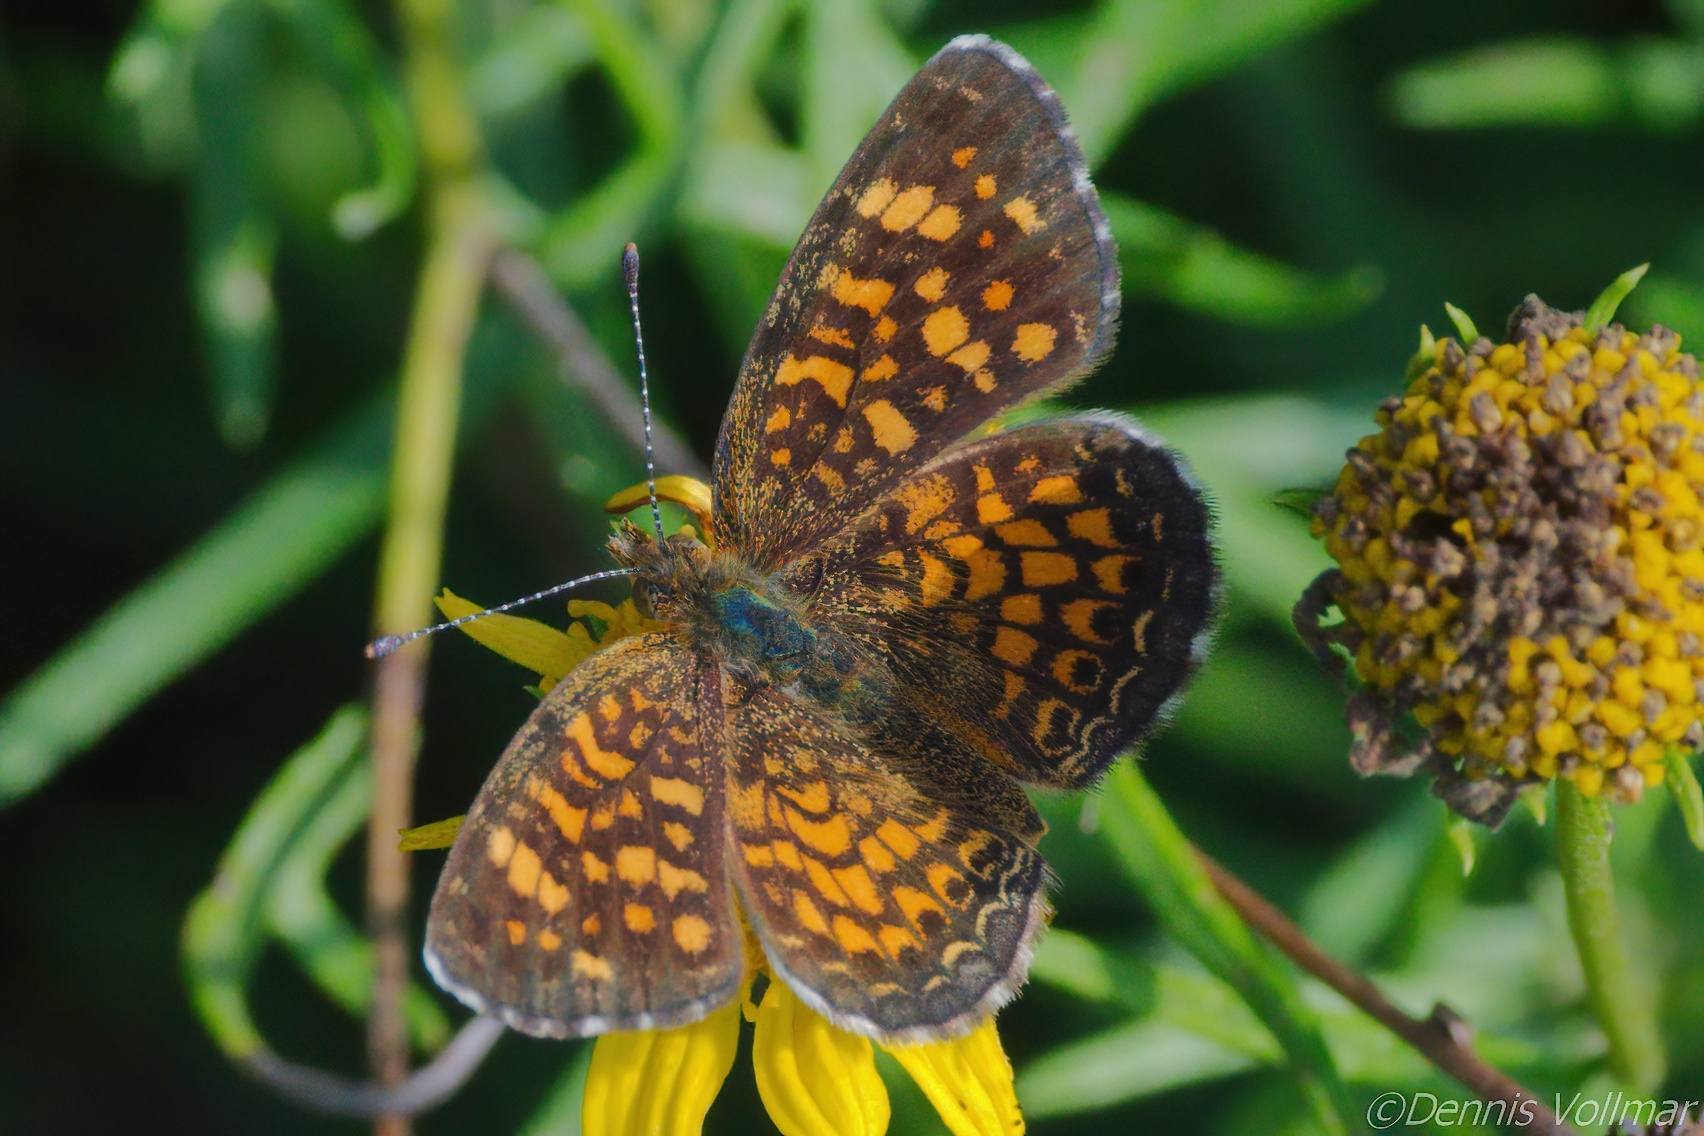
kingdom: Animalia
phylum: Arthropoda
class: Insecta
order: Lepidoptera
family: Nymphalidae
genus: Phyciodes
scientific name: Phyciodes vesta
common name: Vesta crescent
